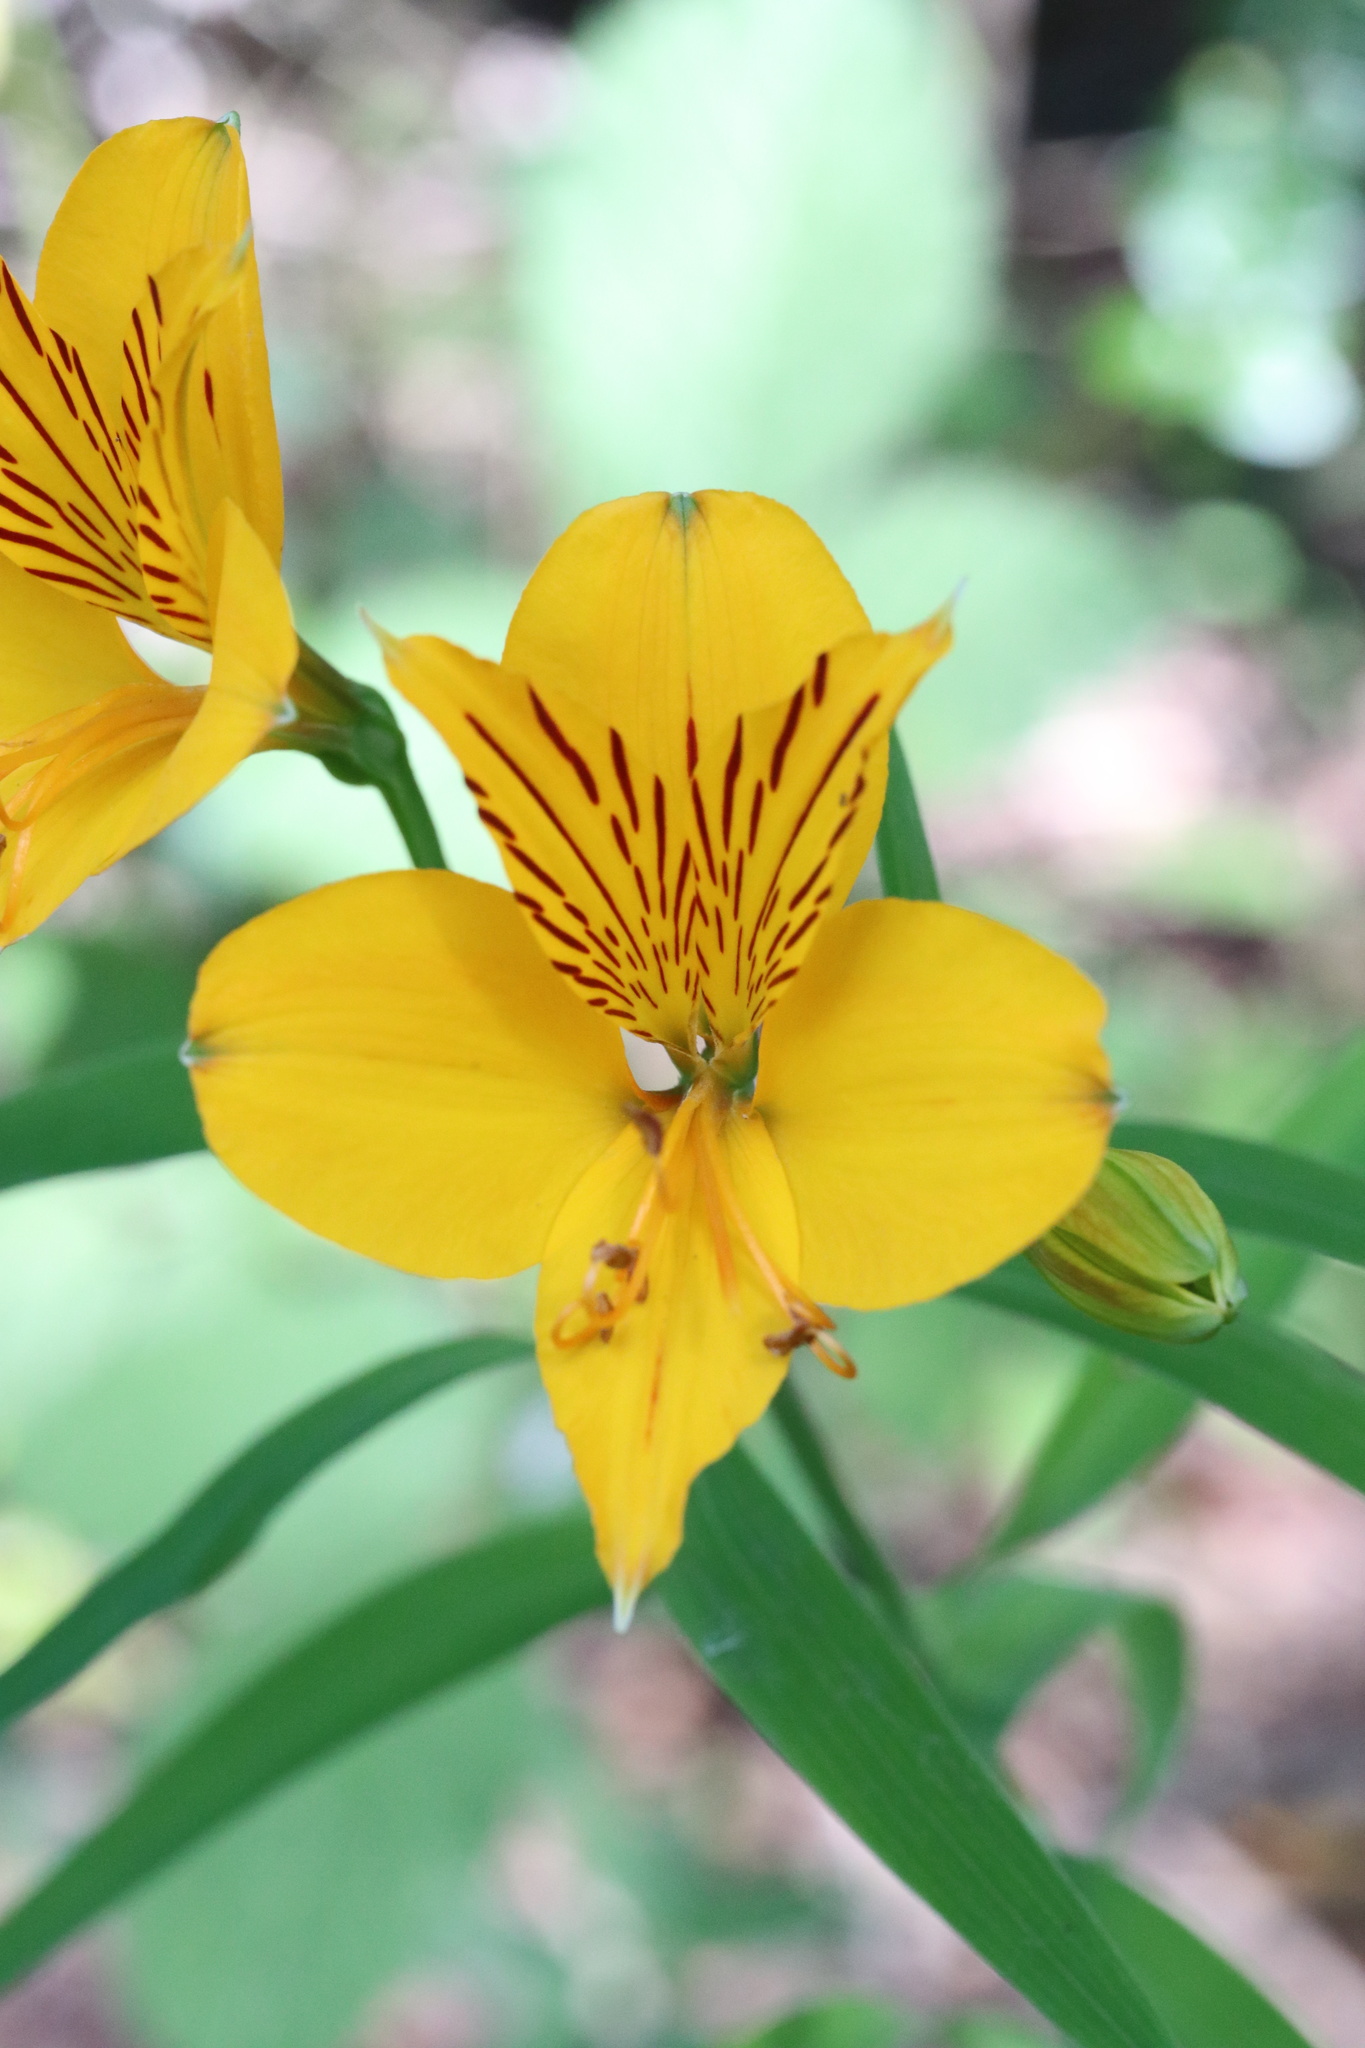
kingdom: Plantae
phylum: Tracheophyta
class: Liliopsida
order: Liliales
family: Alstroemeriaceae
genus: Alstroemeria
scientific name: Alstroemeria aurea
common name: Peruvian lily
